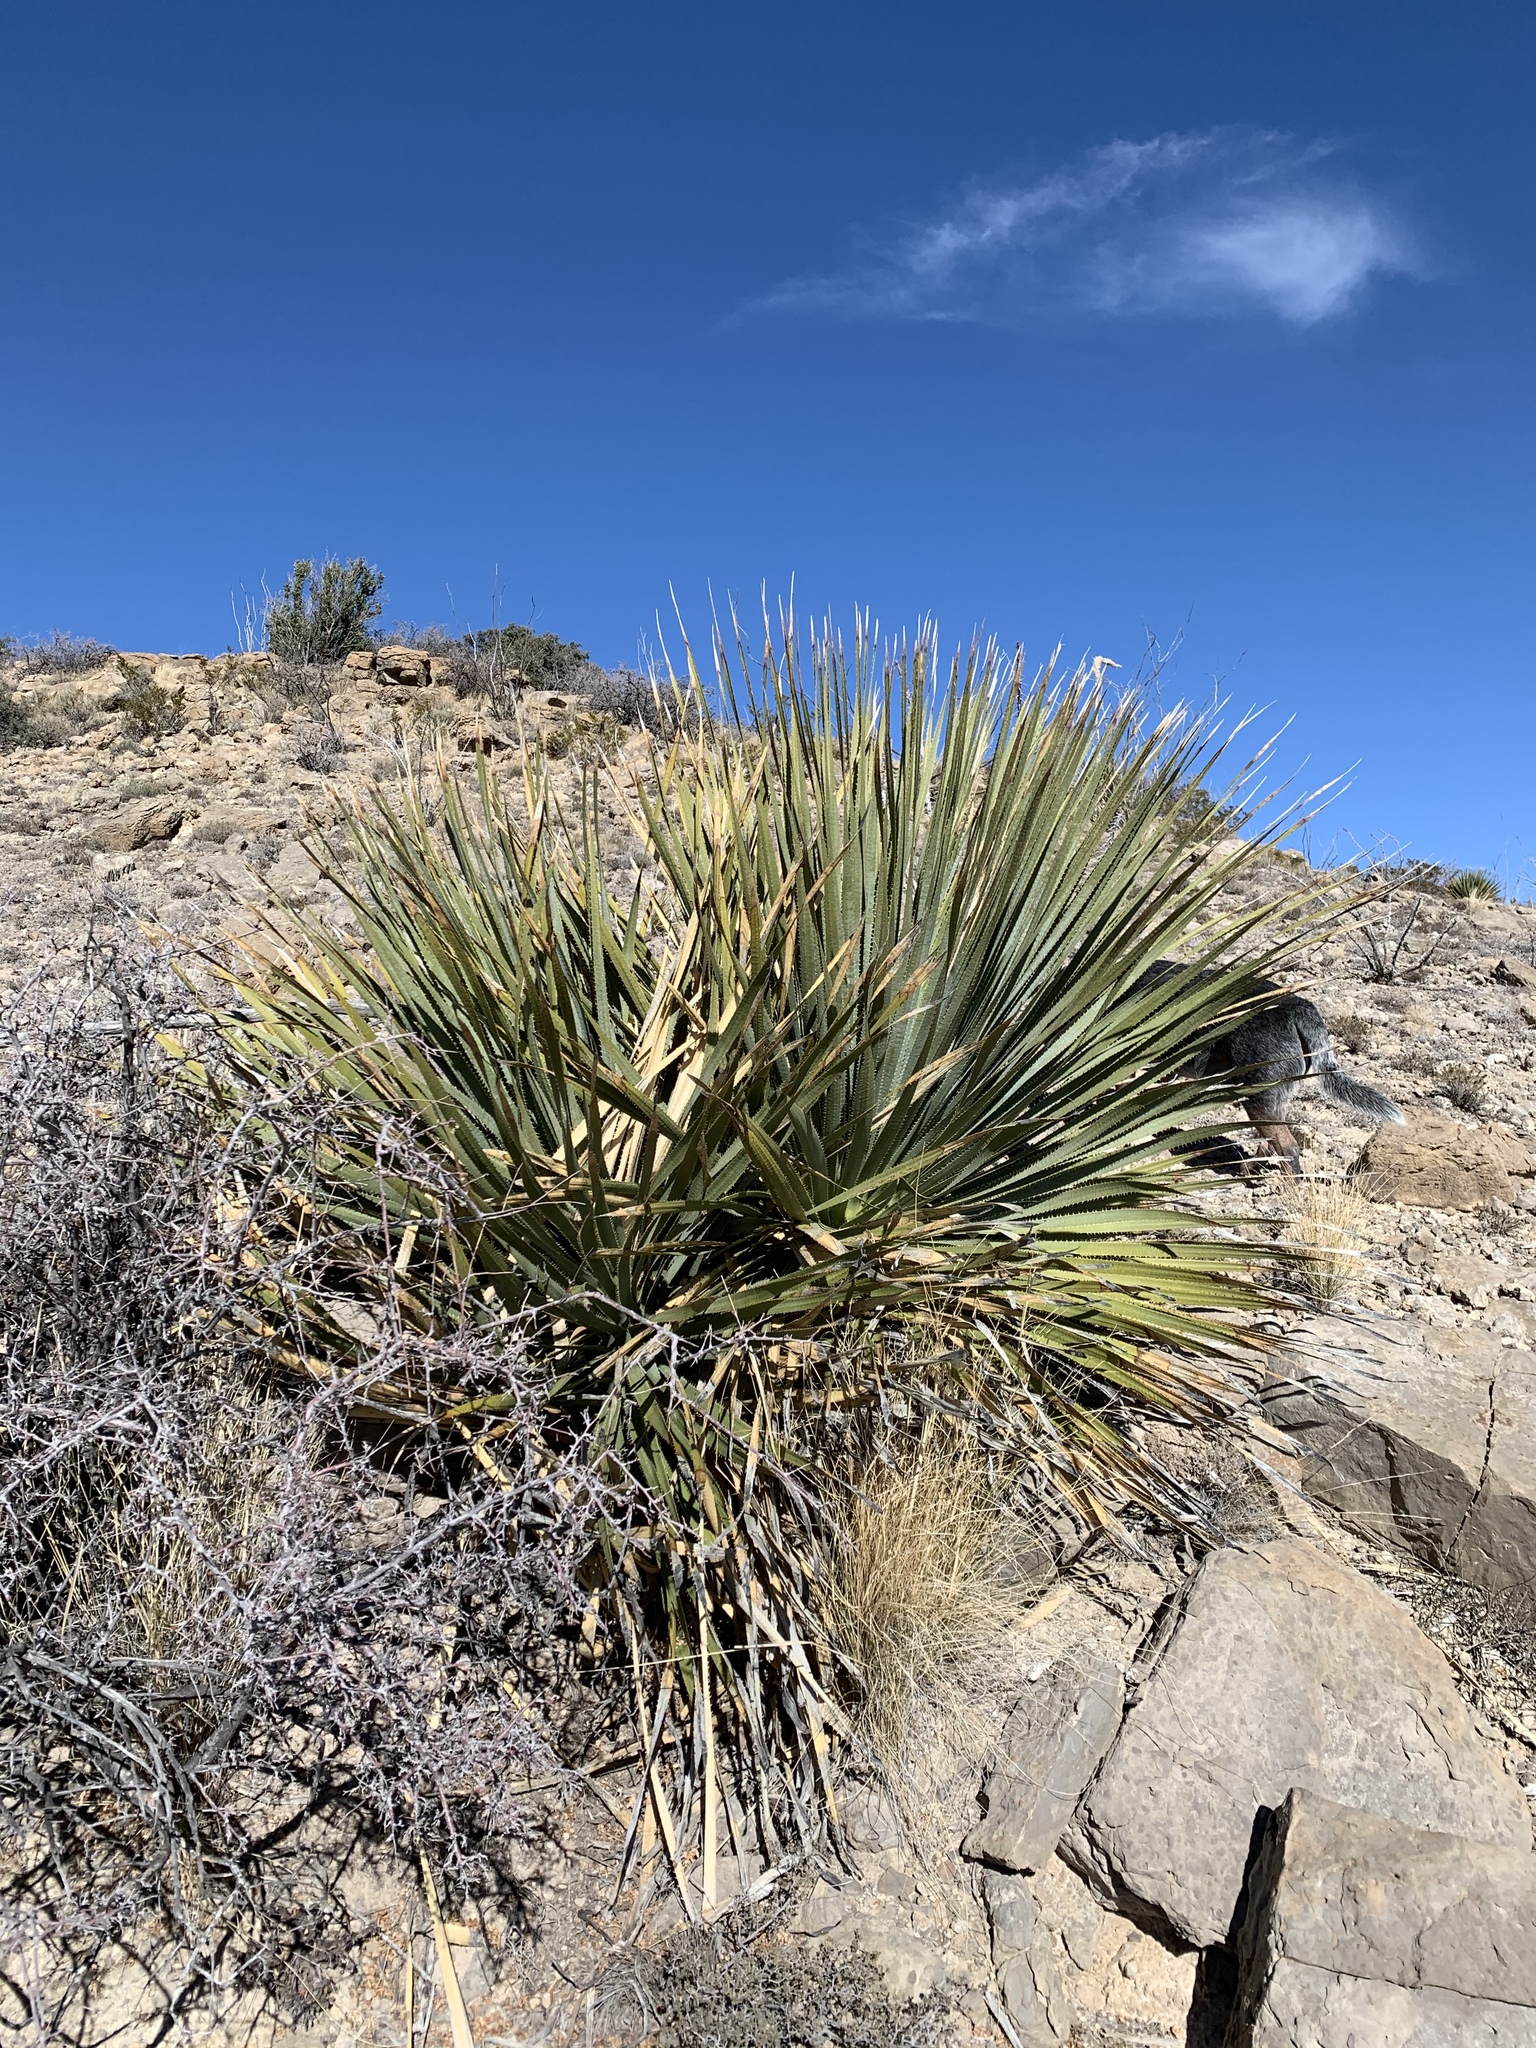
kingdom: Plantae
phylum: Tracheophyta
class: Liliopsida
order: Asparagales
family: Asparagaceae
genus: Dasylirion
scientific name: Dasylirion wheeleri
